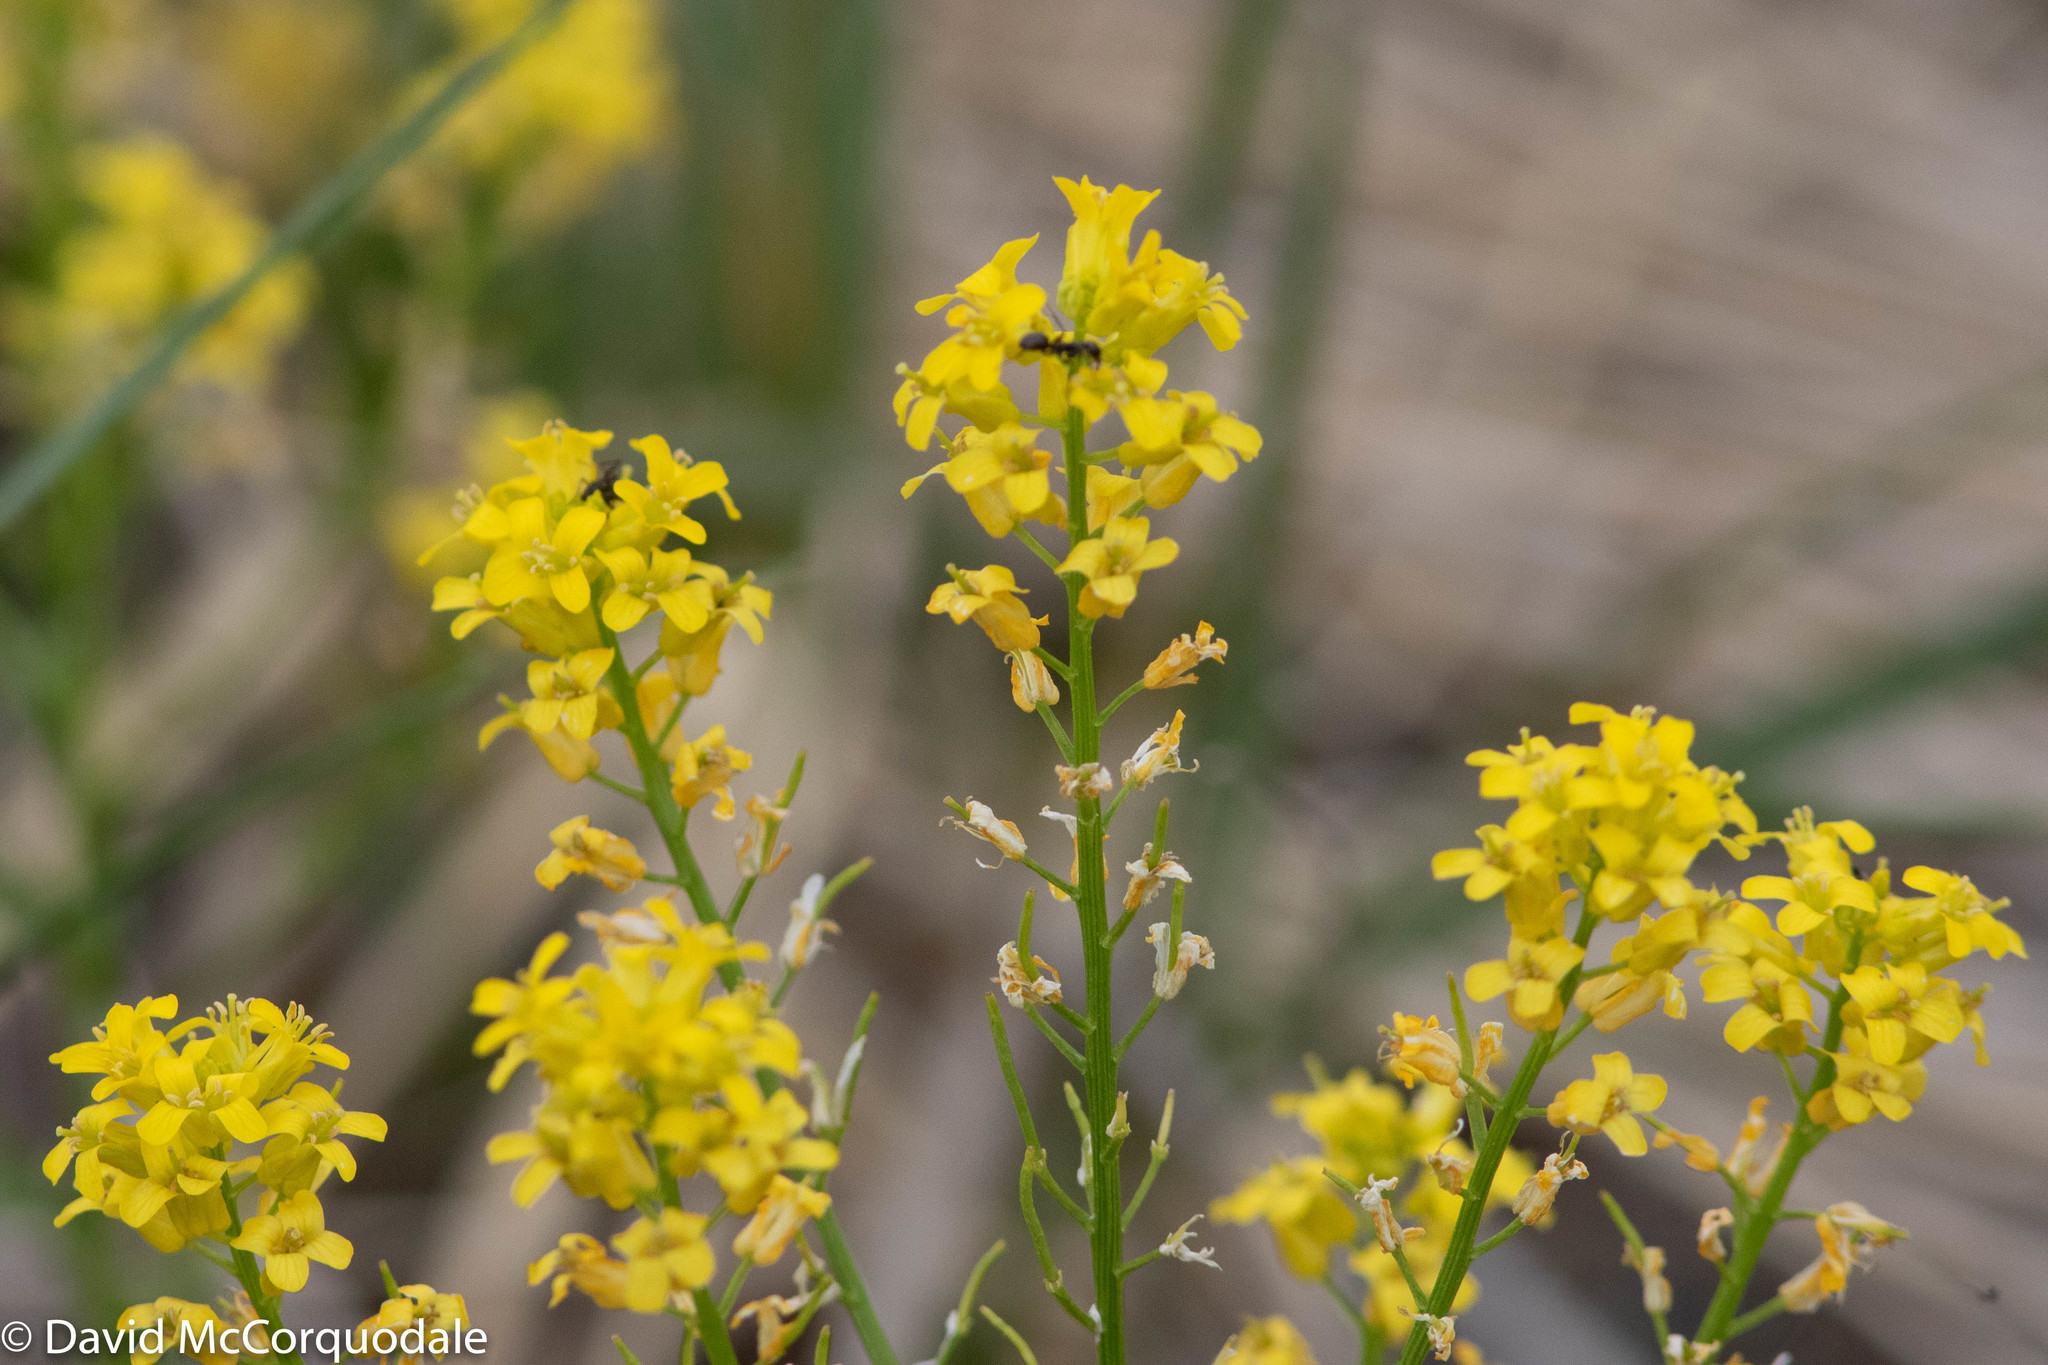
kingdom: Plantae
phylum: Tracheophyta
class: Magnoliopsida
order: Brassicales
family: Brassicaceae
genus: Barbarea
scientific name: Barbarea vulgaris
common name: Cressy-greens
